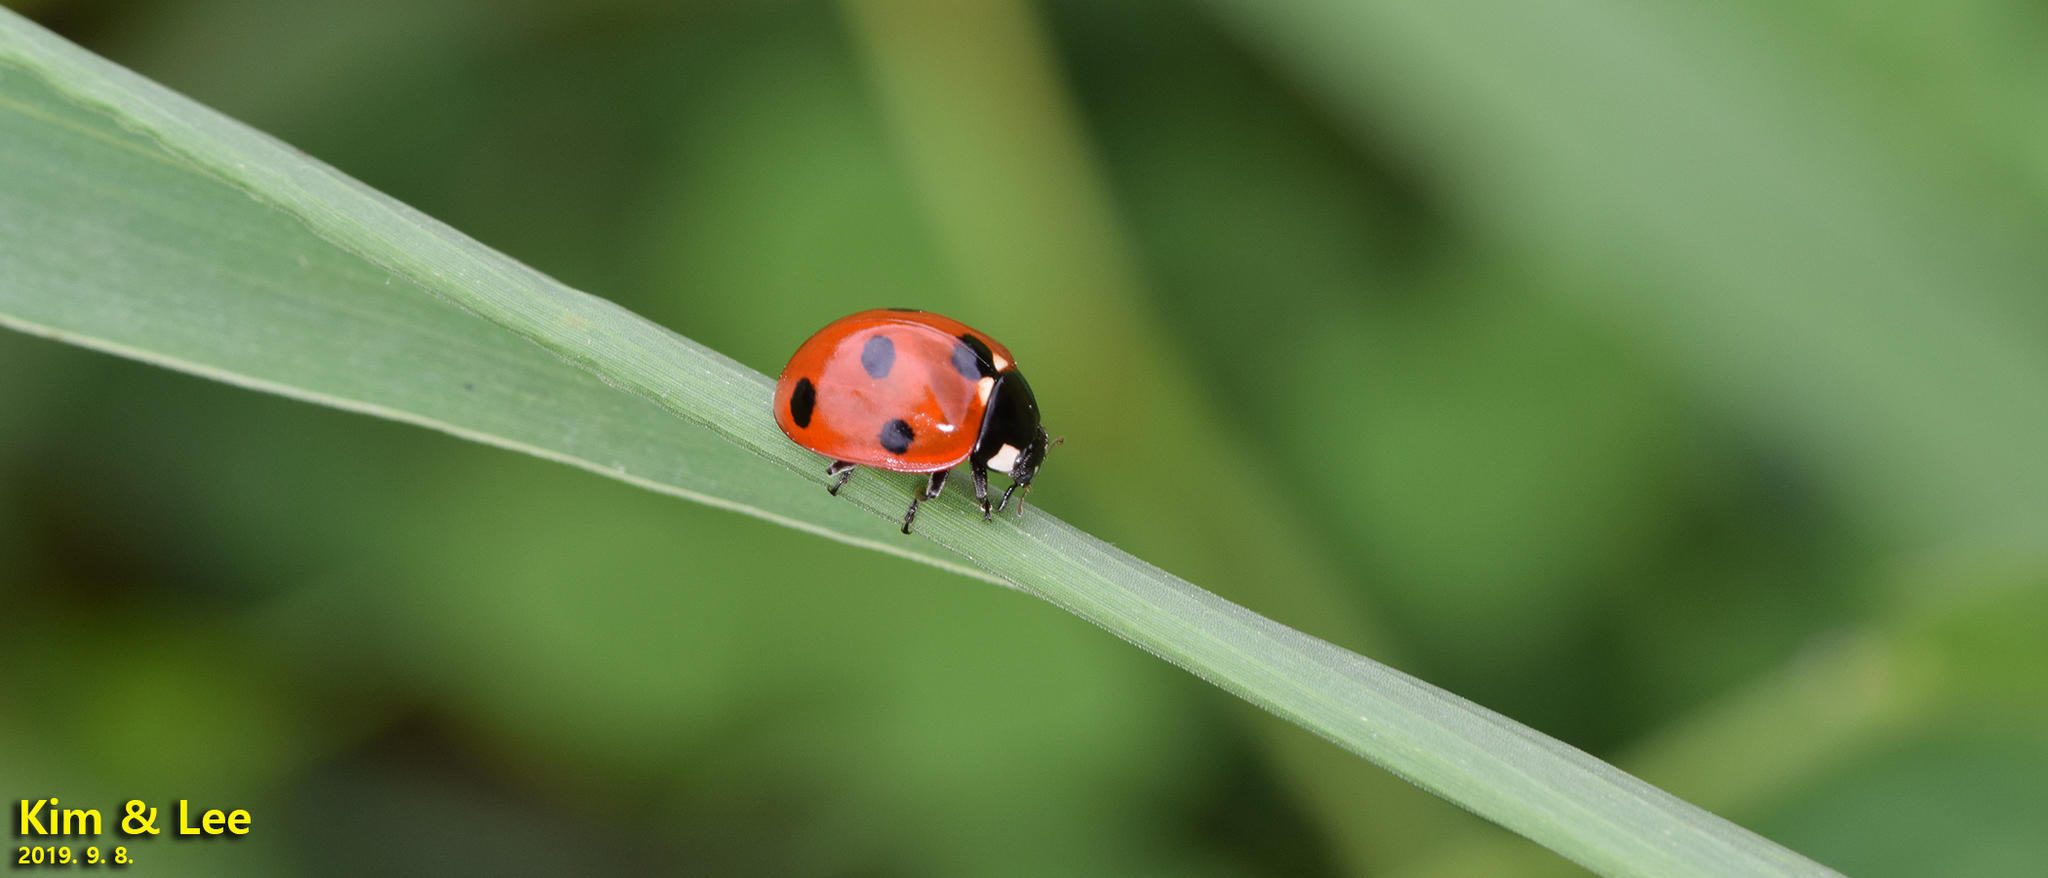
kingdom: Animalia
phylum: Arthropoda
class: Insecta
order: Coleoptera
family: Coccinellidae
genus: Coccinella
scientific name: Coccinella septempunctata
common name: Sevenspotted lady beetle
